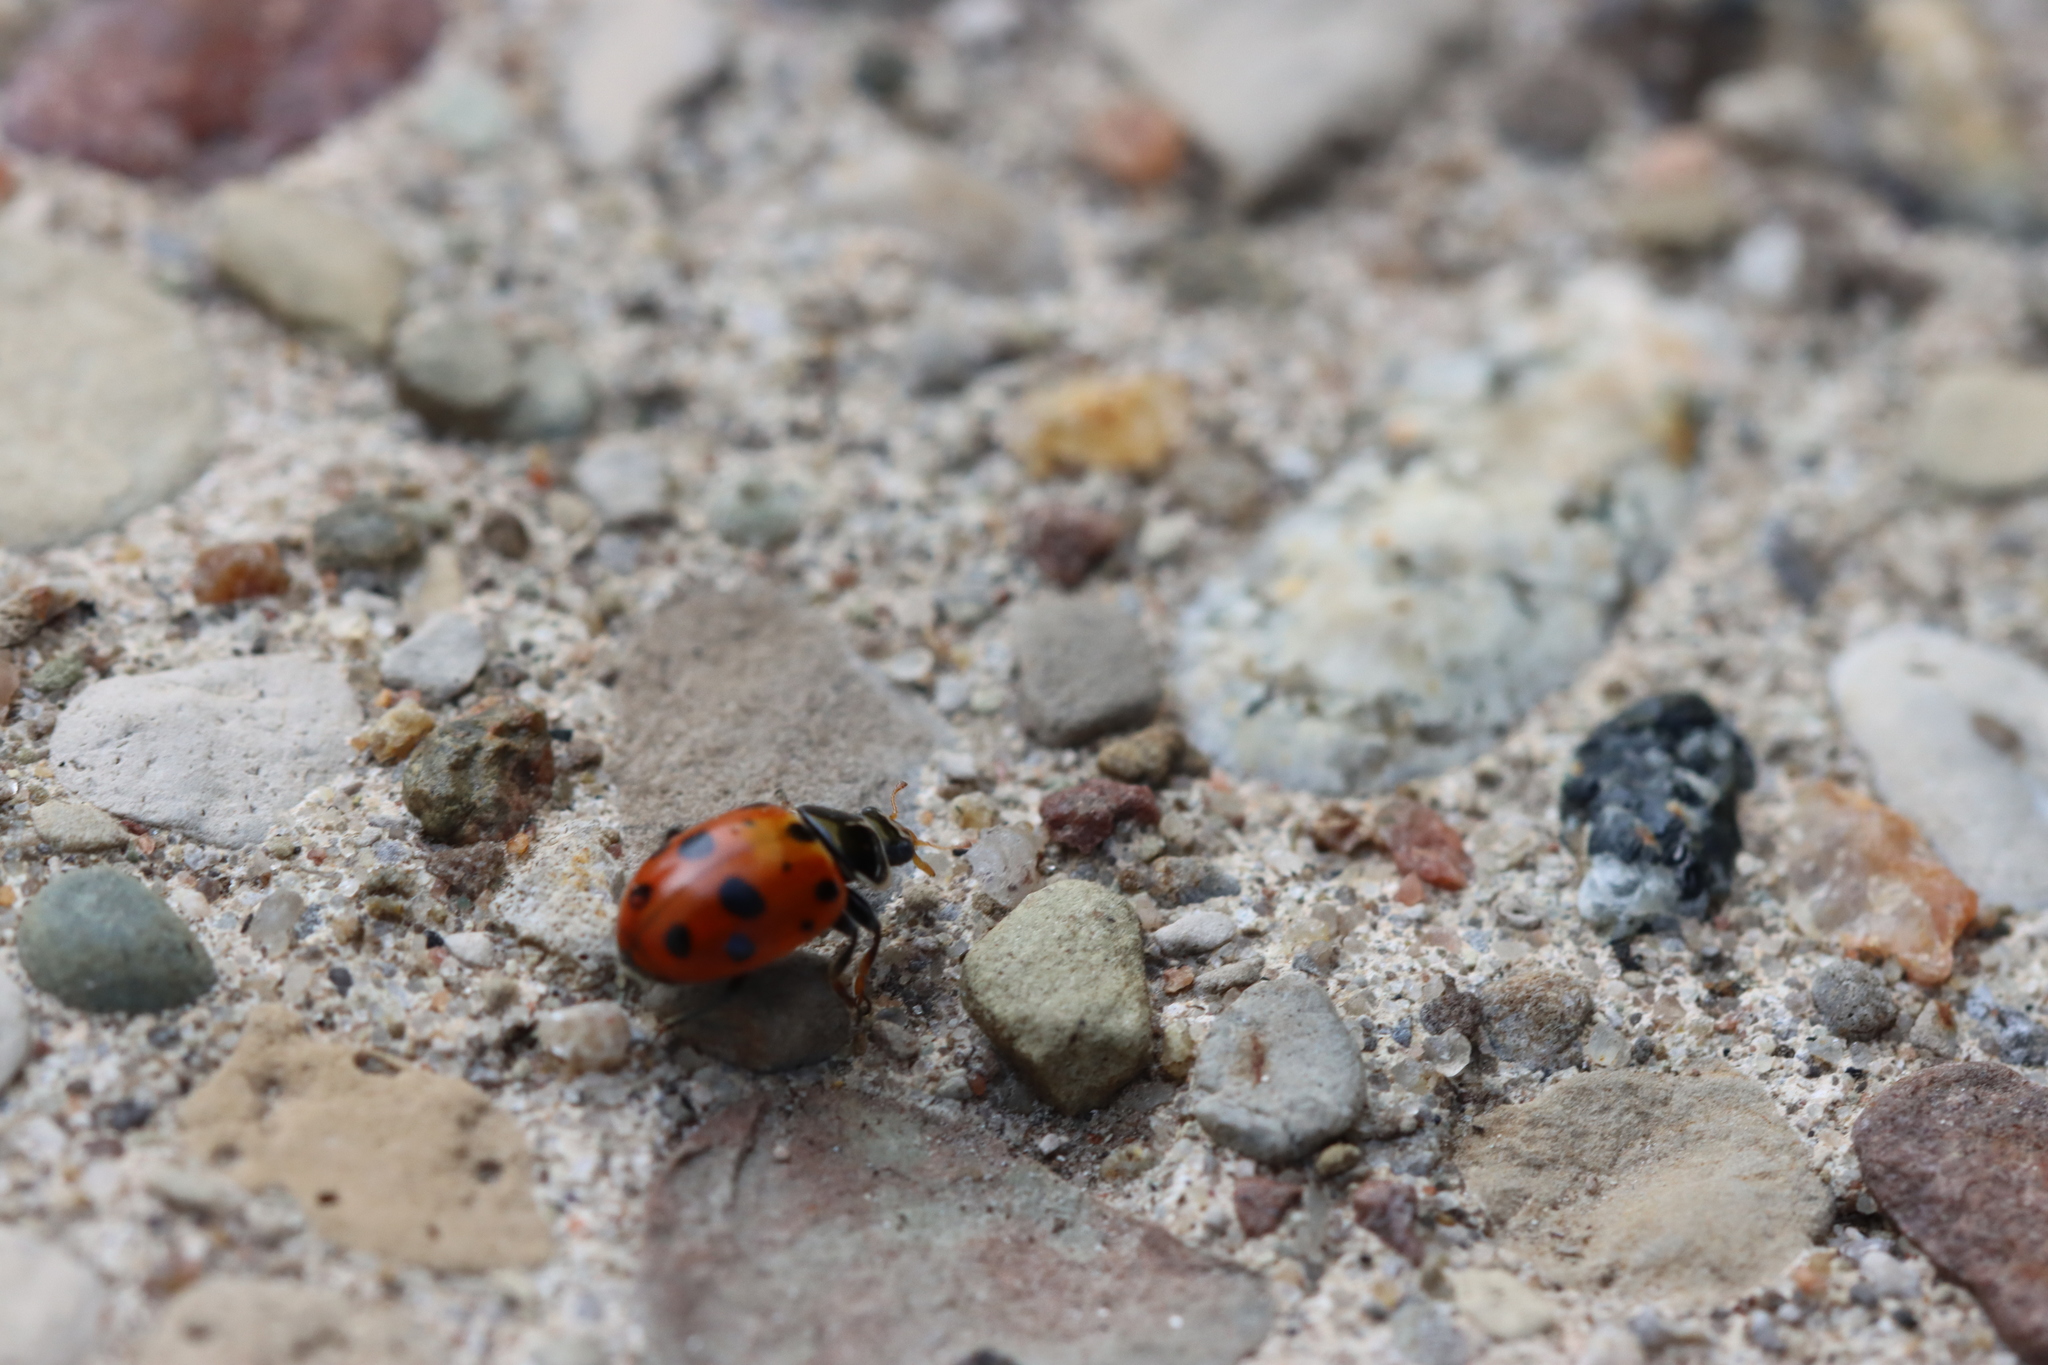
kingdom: Animalia
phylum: Arthropoda
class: Insecta
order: Coleoptera
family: Coccinellidae
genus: Hippodamia
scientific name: Hippodamia variegata
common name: Ladybird beetle
